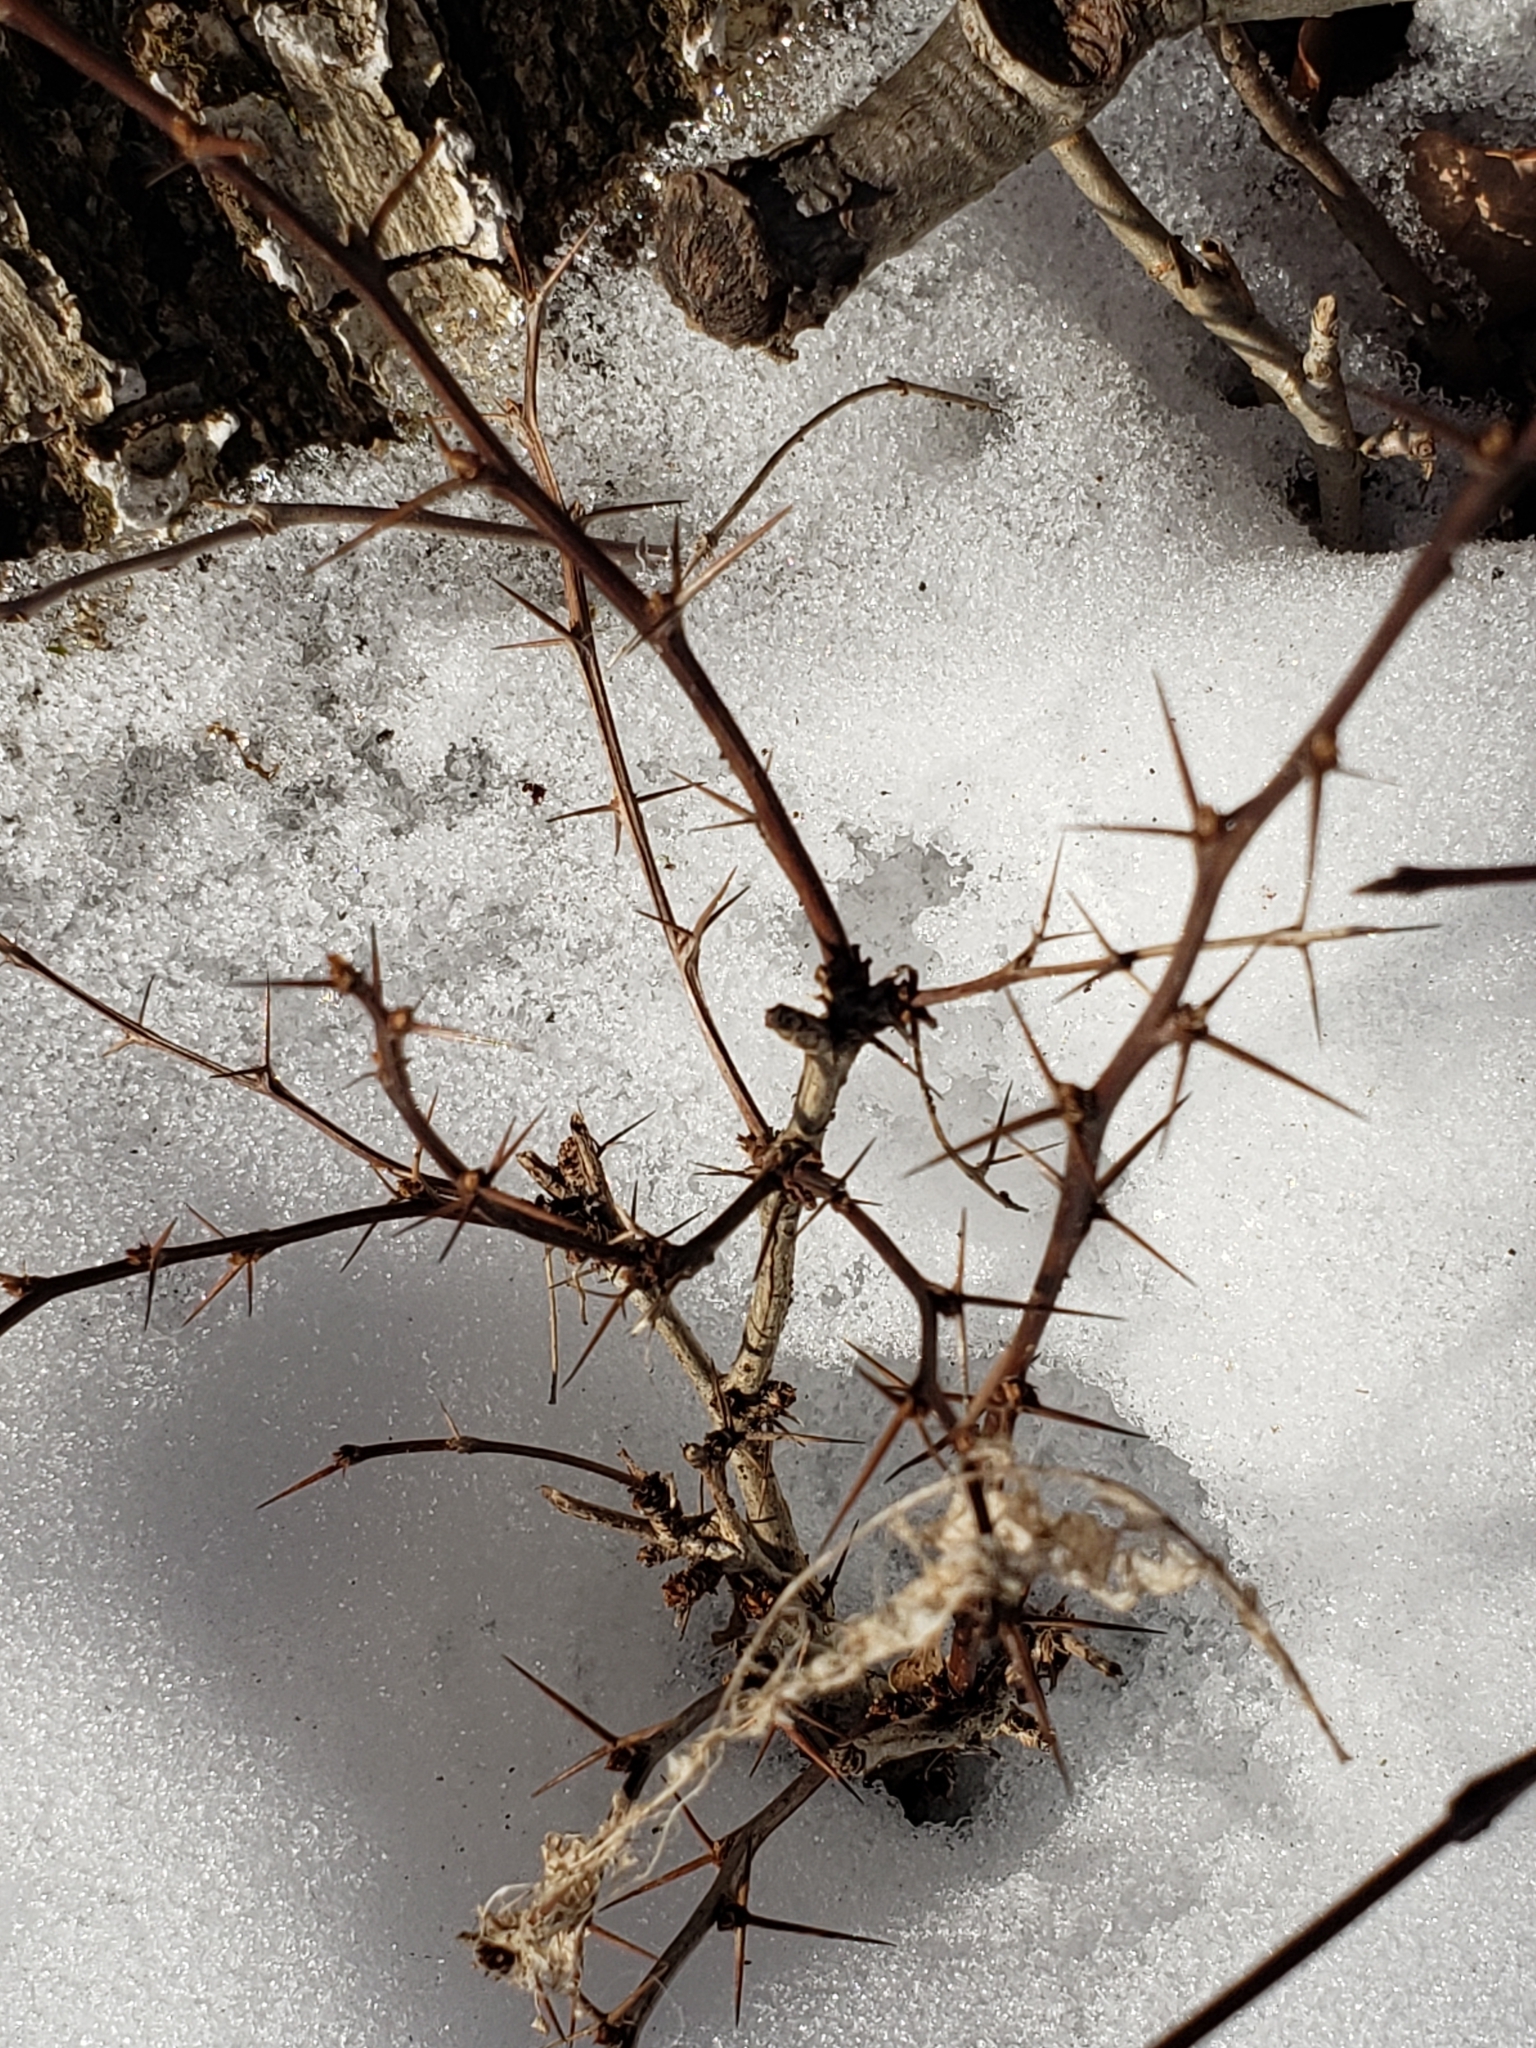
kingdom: Plantae
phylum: Tracheophyta
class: Magnoliopsida
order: Ranunculales
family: Berberidaceae
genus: Berberis
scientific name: Berberis vulgaris
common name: Barberry
